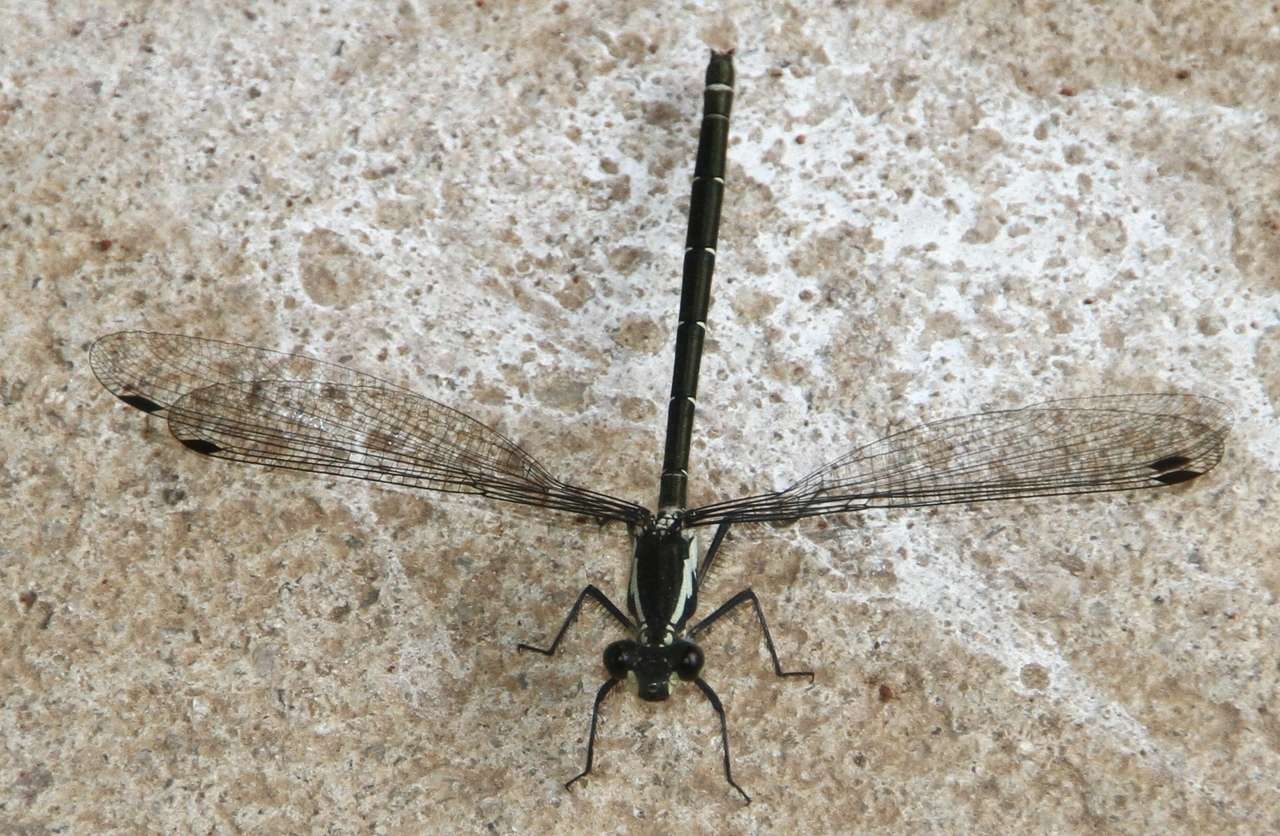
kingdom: Animalia
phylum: Arthropoda
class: Insecta
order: Odonata
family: Argiolestidae
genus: Austroargiolestes
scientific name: Austroargiolestes icteromelas
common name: Common flatwing
